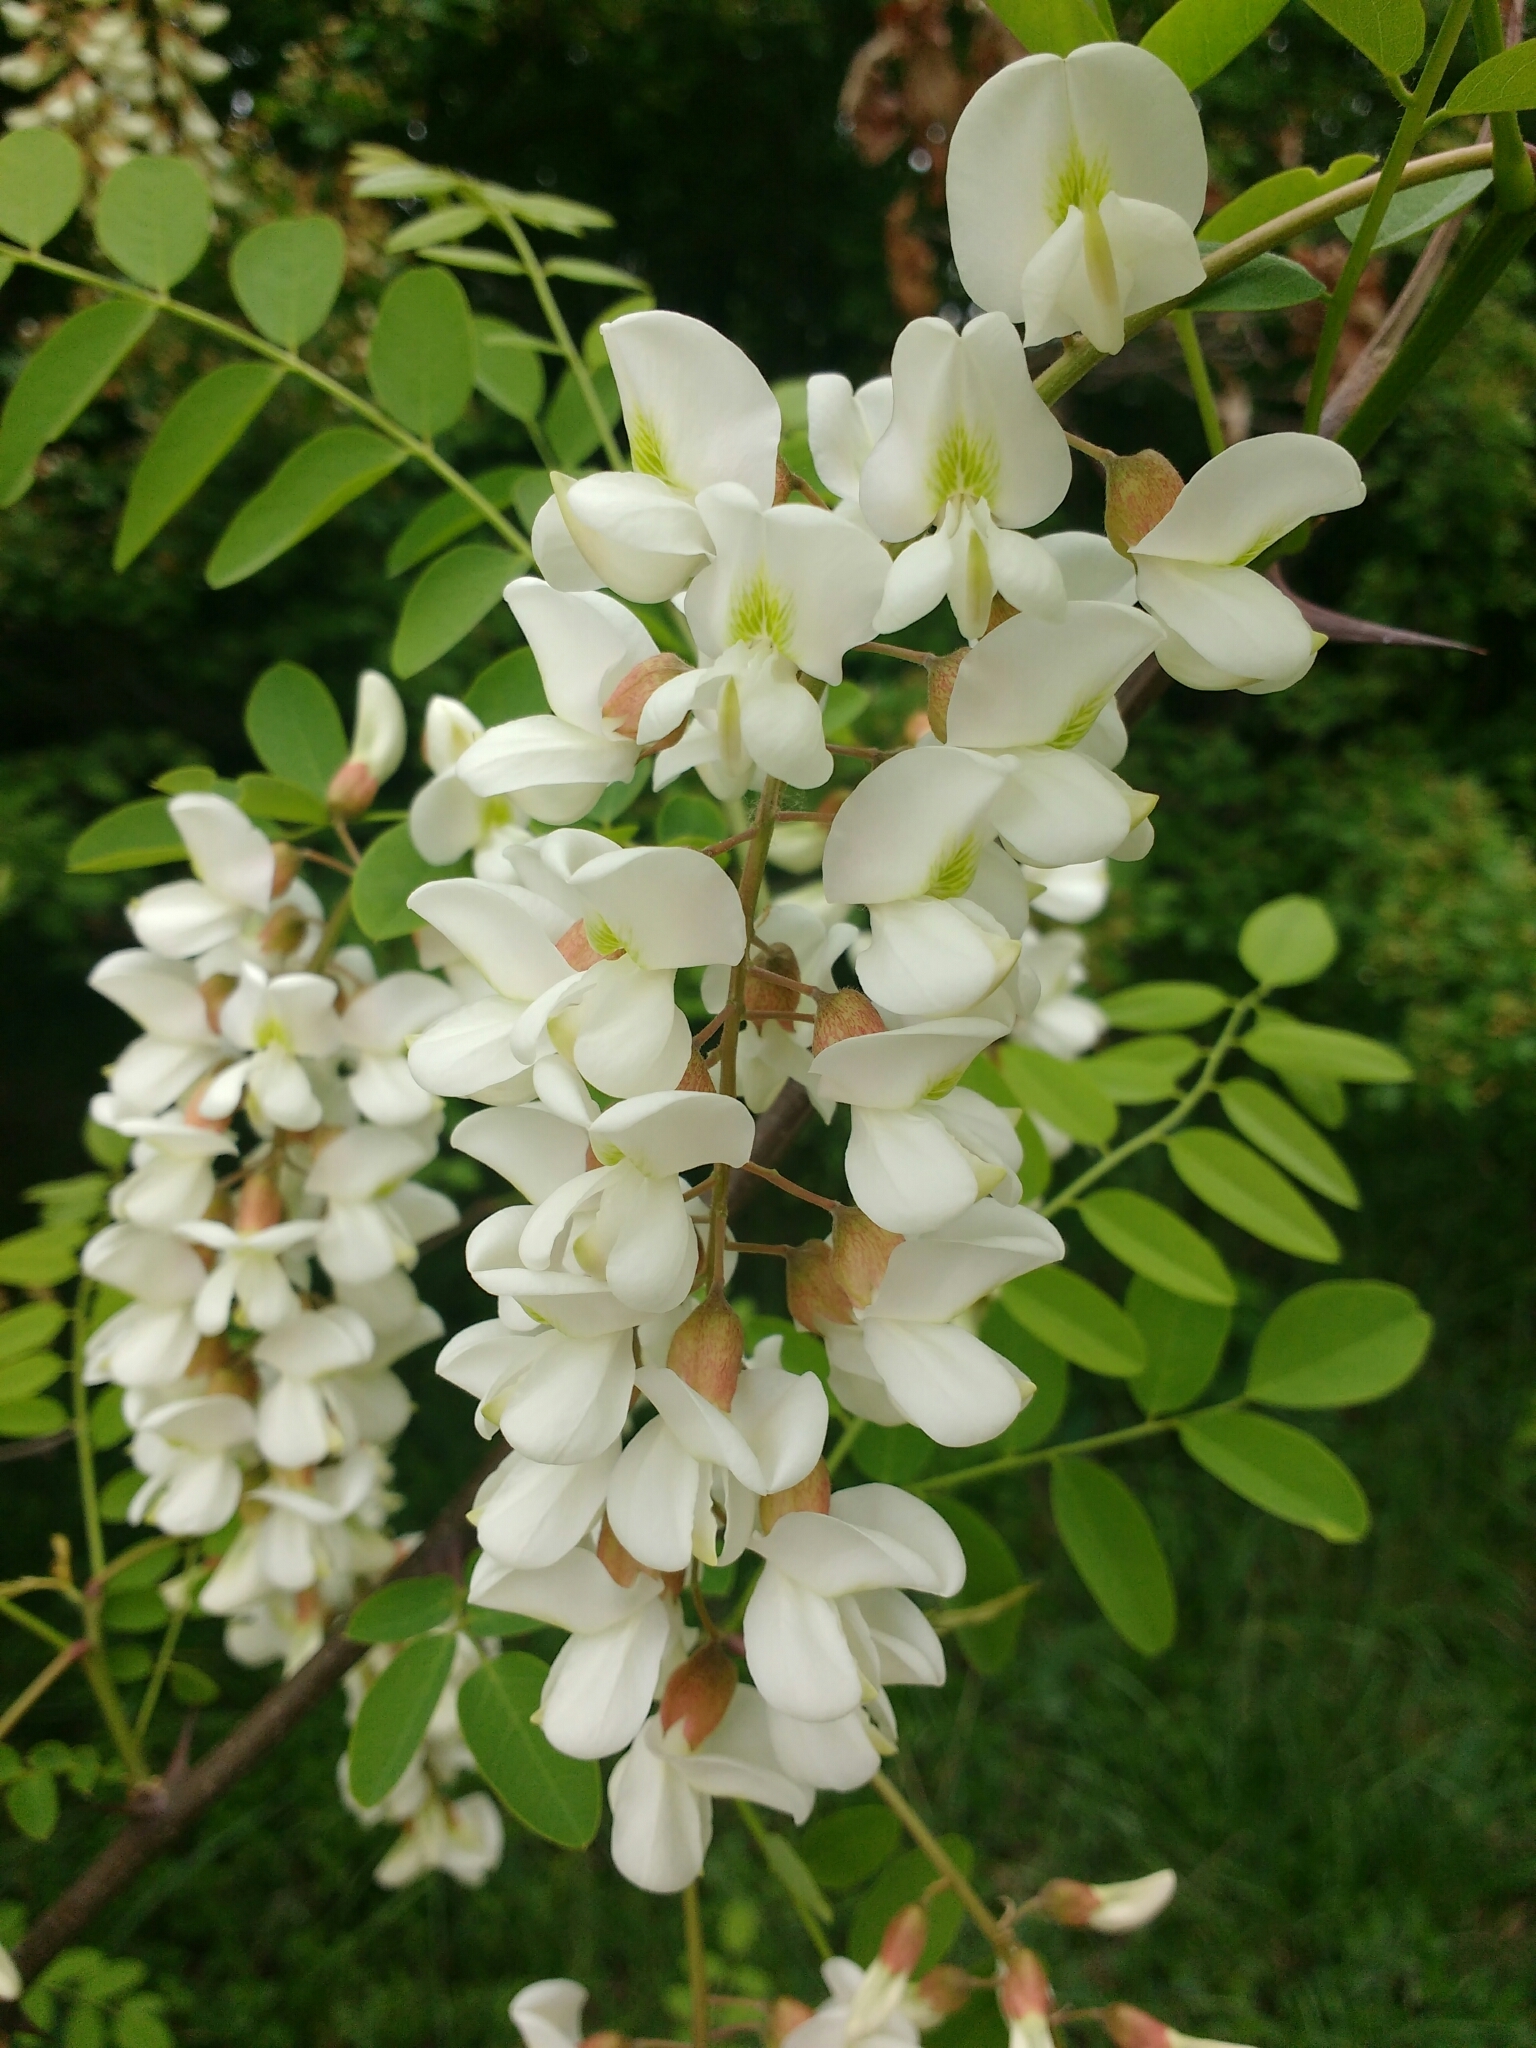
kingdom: Plantae
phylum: Tracheophyta
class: Magnoliopsida
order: Fabales
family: Fabaceae
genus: Robinia
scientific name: Robinia pseudoacacia
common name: Black locust
